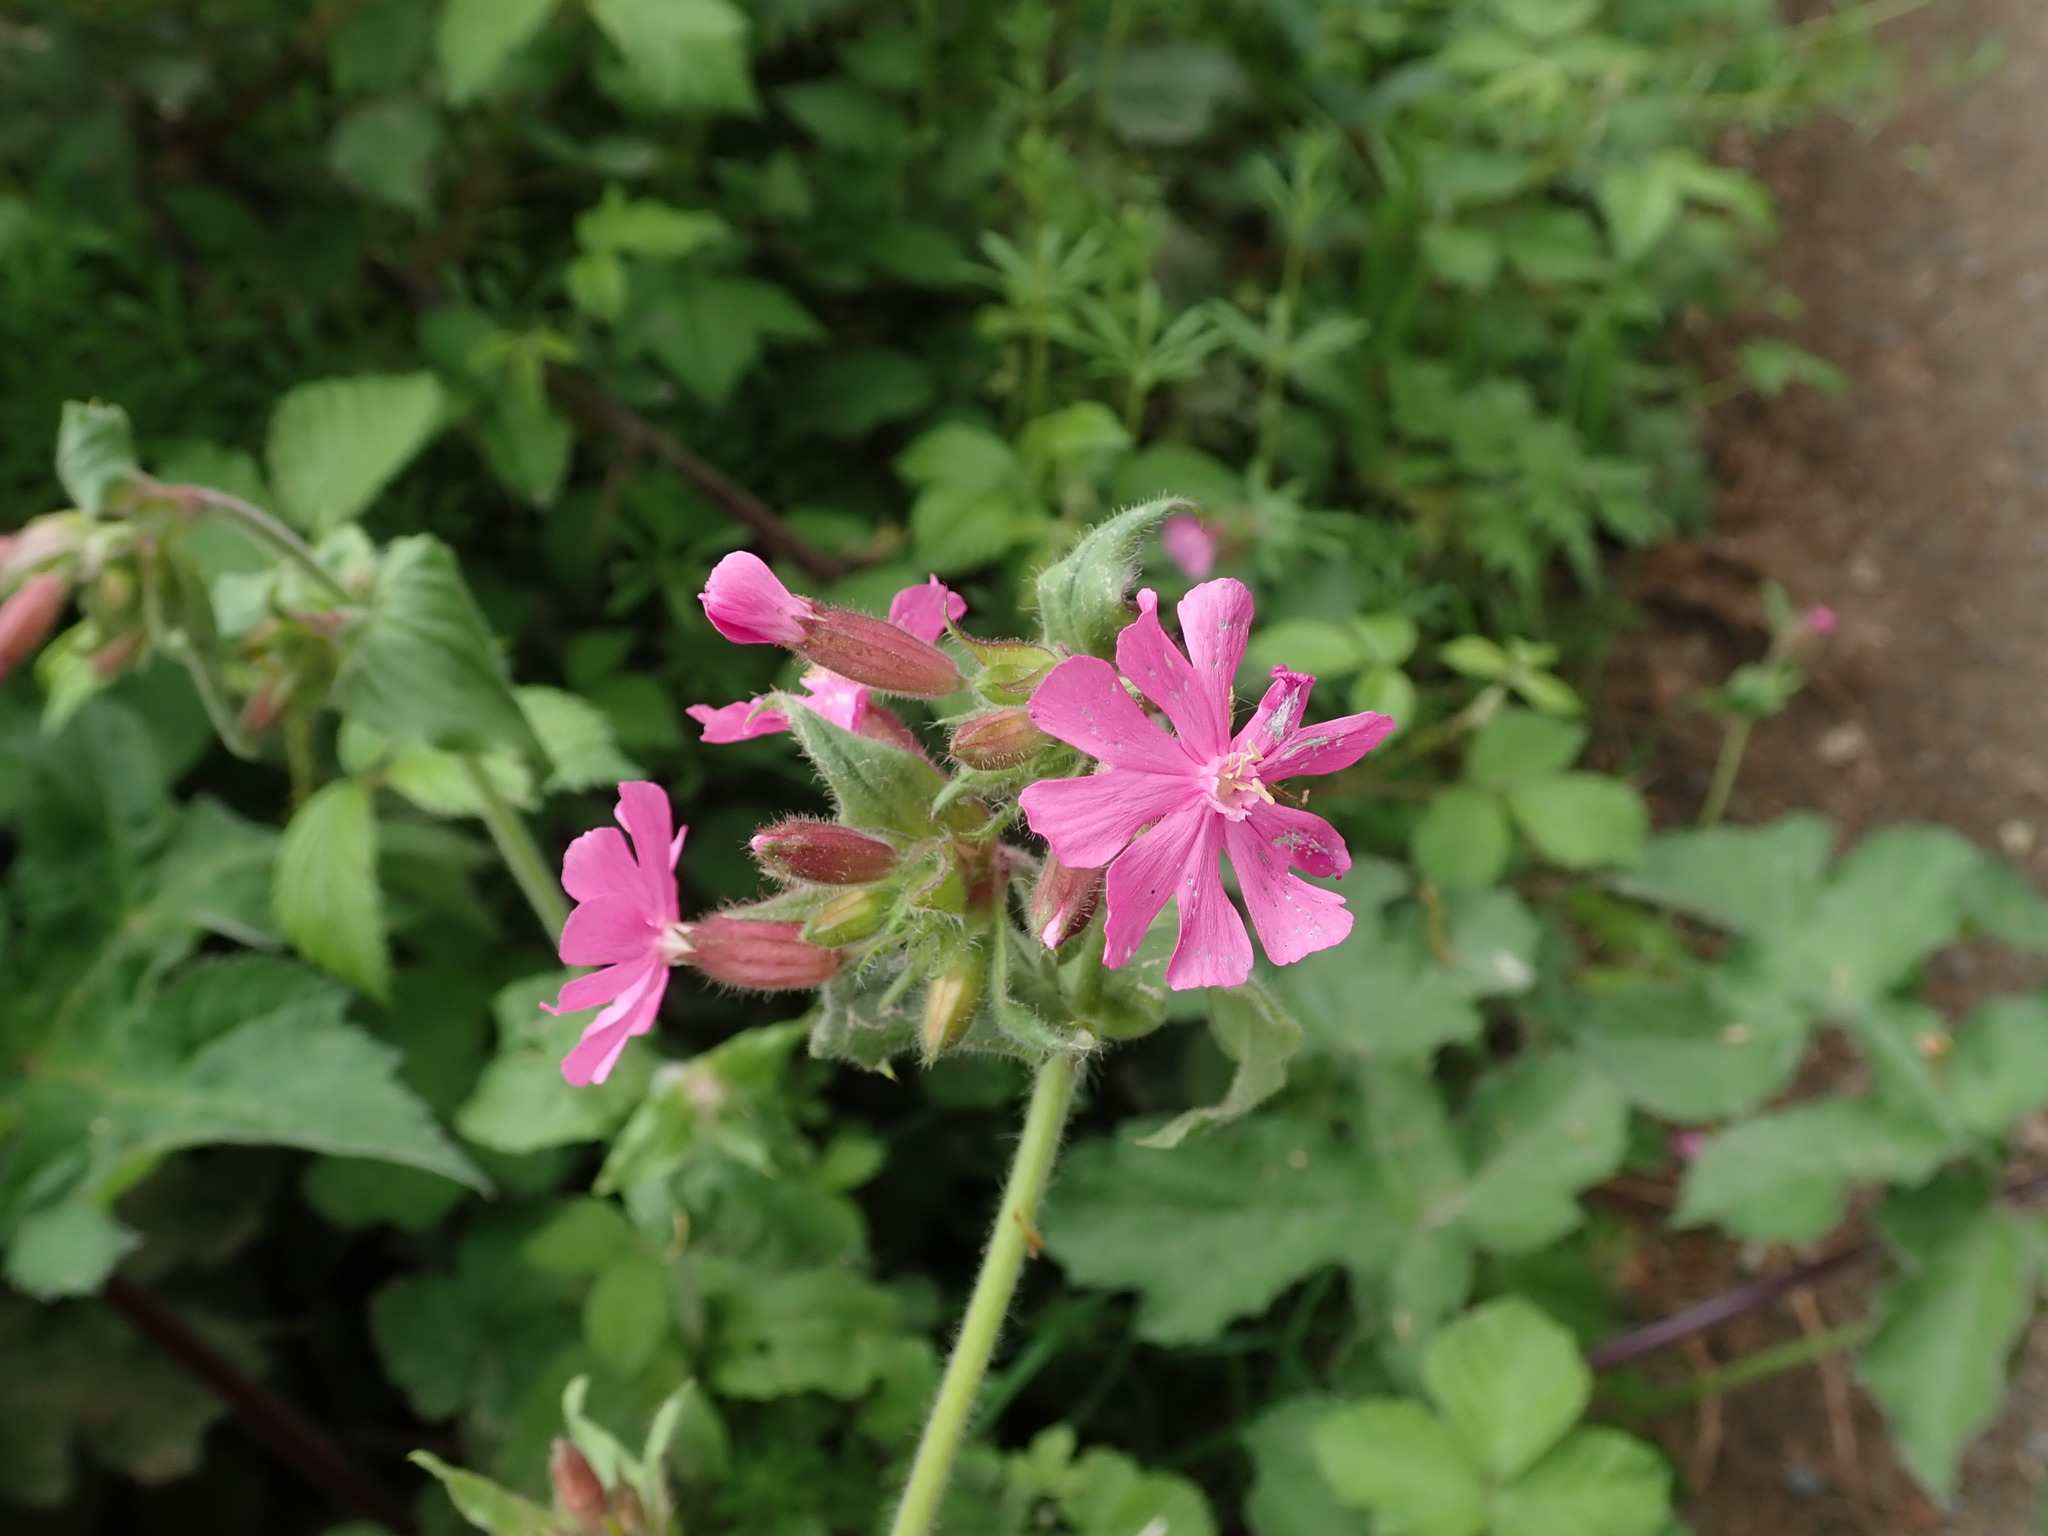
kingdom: Plantae
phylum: Tracheophyta
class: Magnoliopsida
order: Caryophyllales
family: Caryophyllaceae
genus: Silene
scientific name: Silene dioica
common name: Red campion
